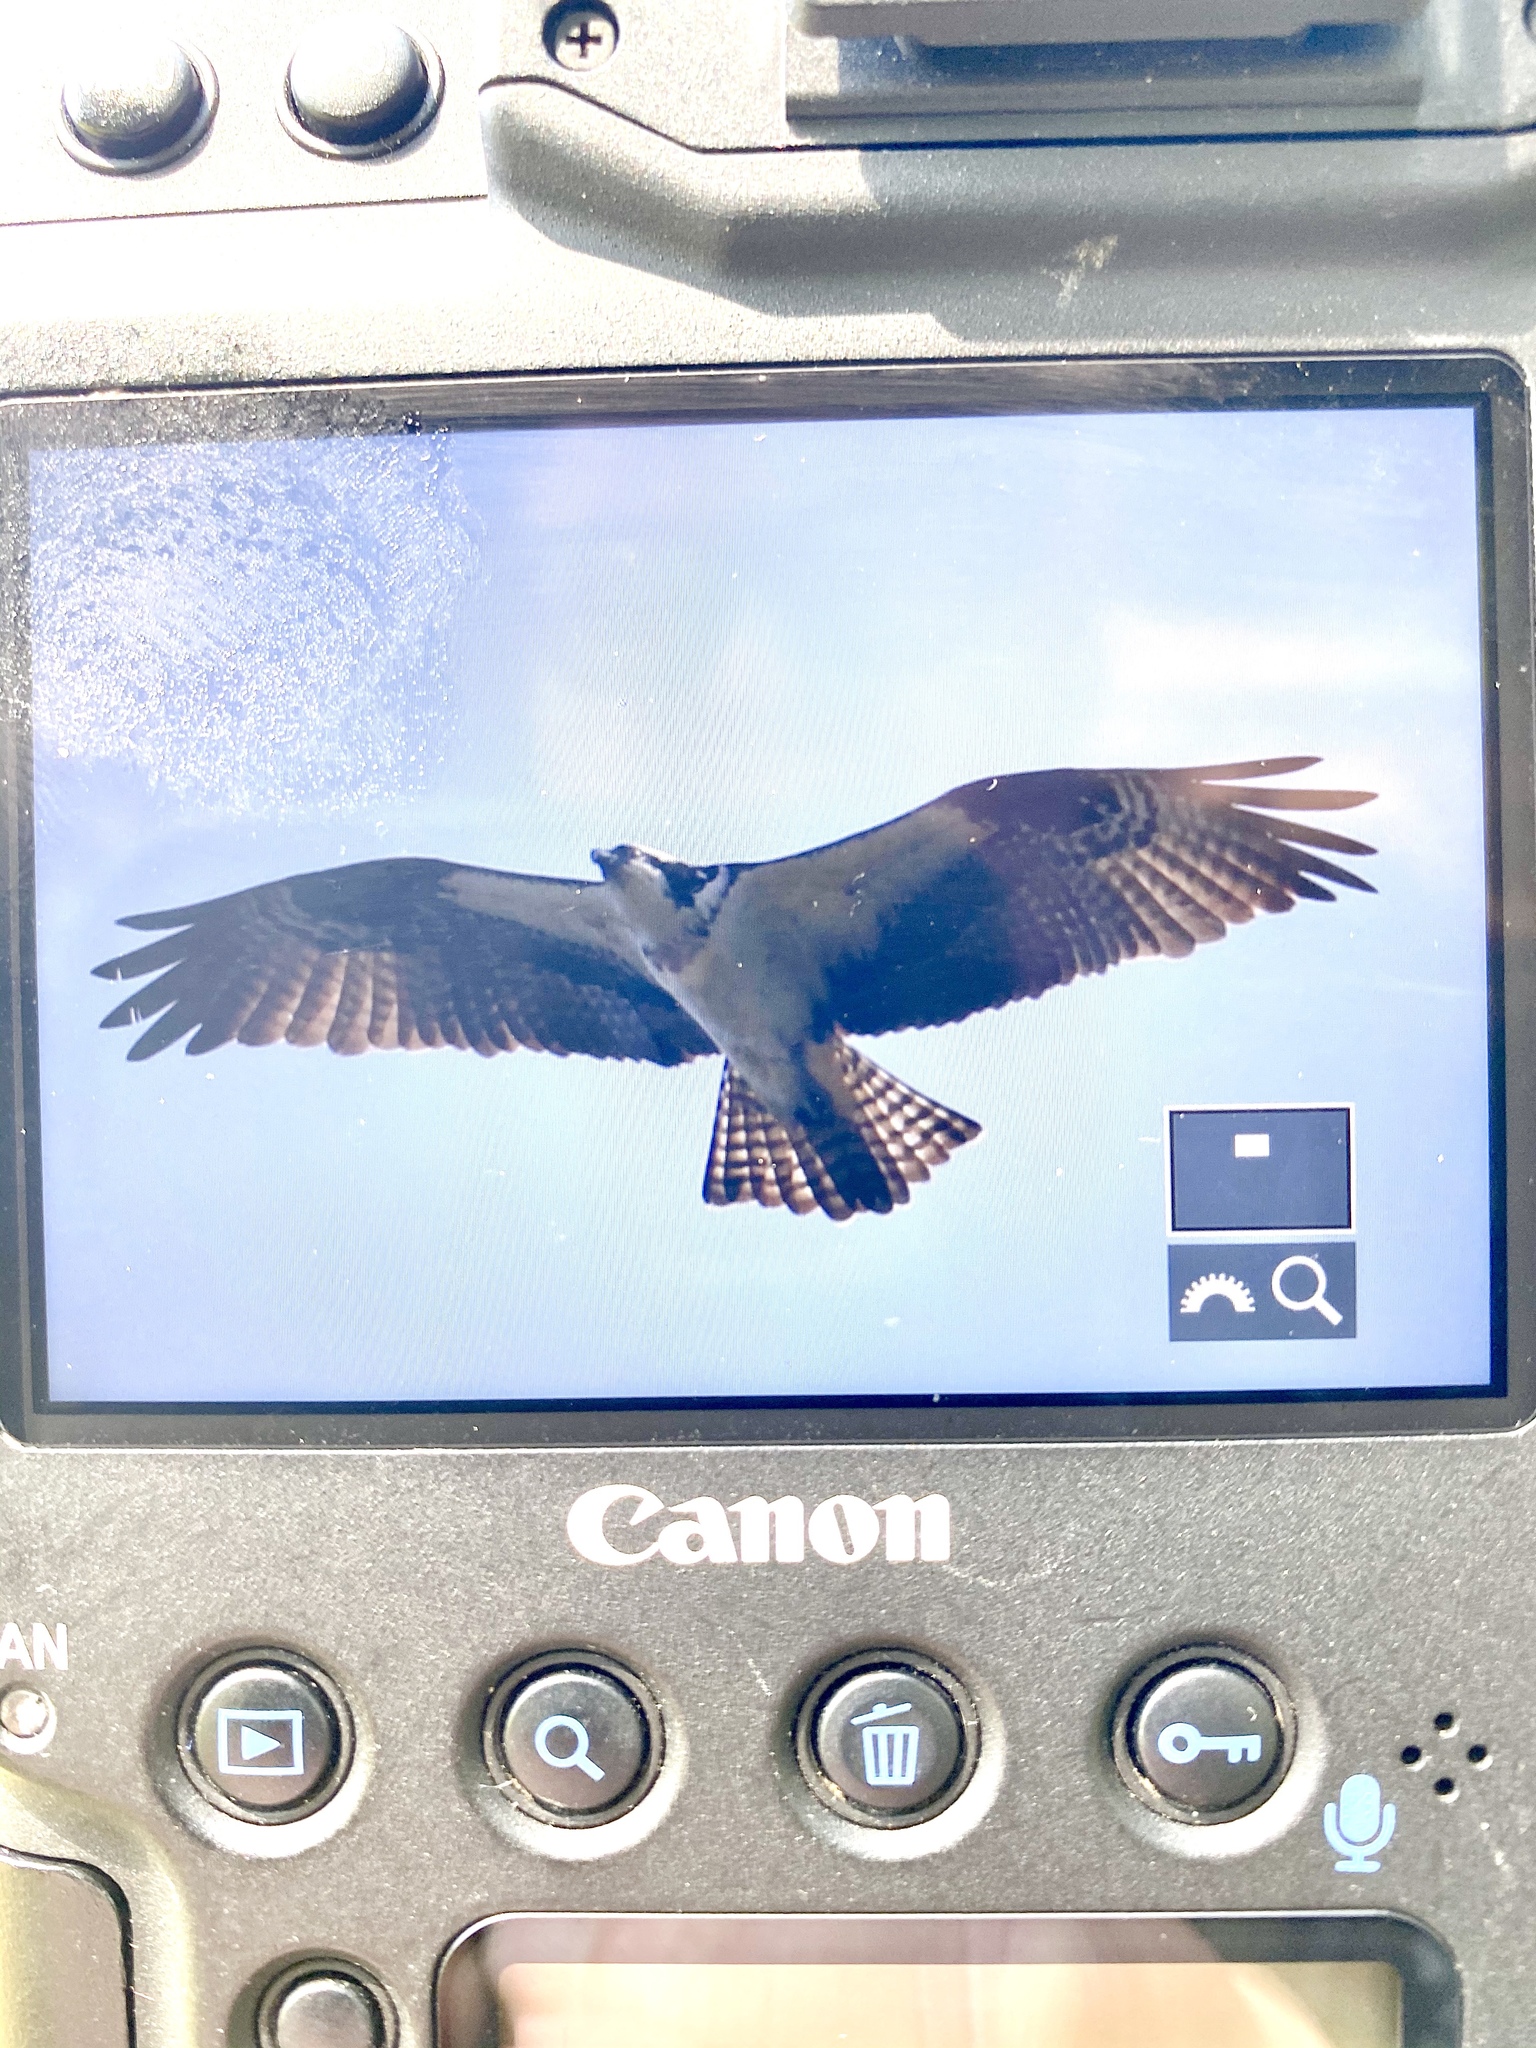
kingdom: Animalia
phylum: Chordata
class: Aves
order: Accipitriformes
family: Pandionidae
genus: Pandion
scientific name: Pandion haliaetus
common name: Osprey
